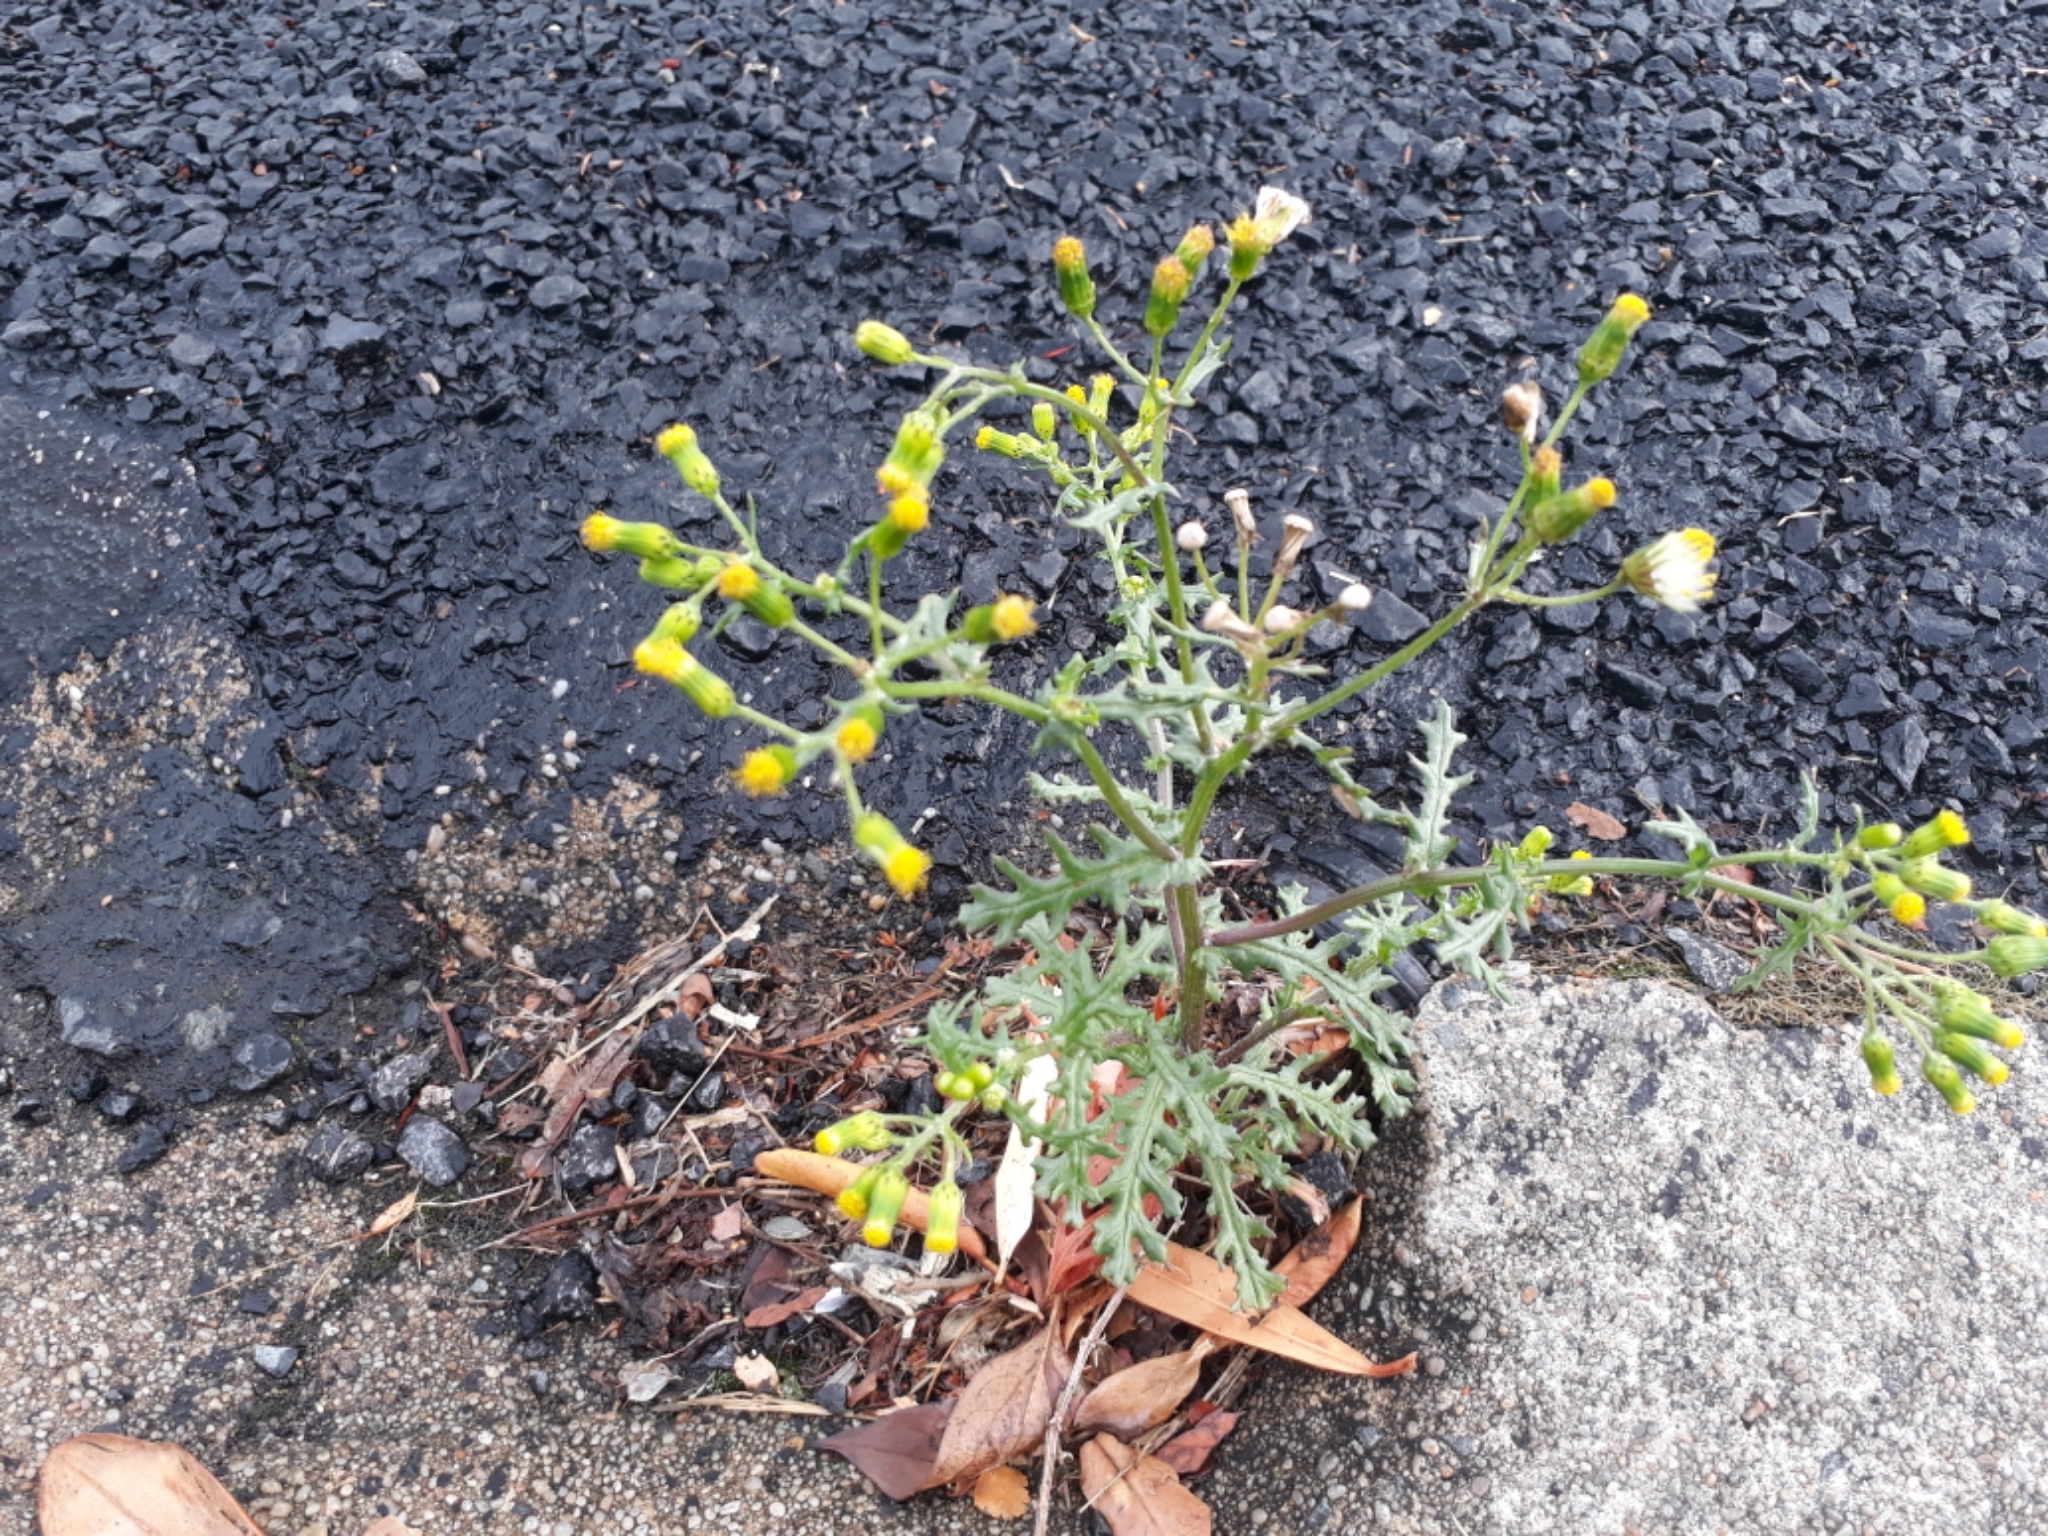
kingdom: Plantae
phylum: Tracheophyta
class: Magnoliopsida
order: Asterales
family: Asteraceae
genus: Senecio
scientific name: Senecio vulgaris
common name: Old-man-in-the-spring
